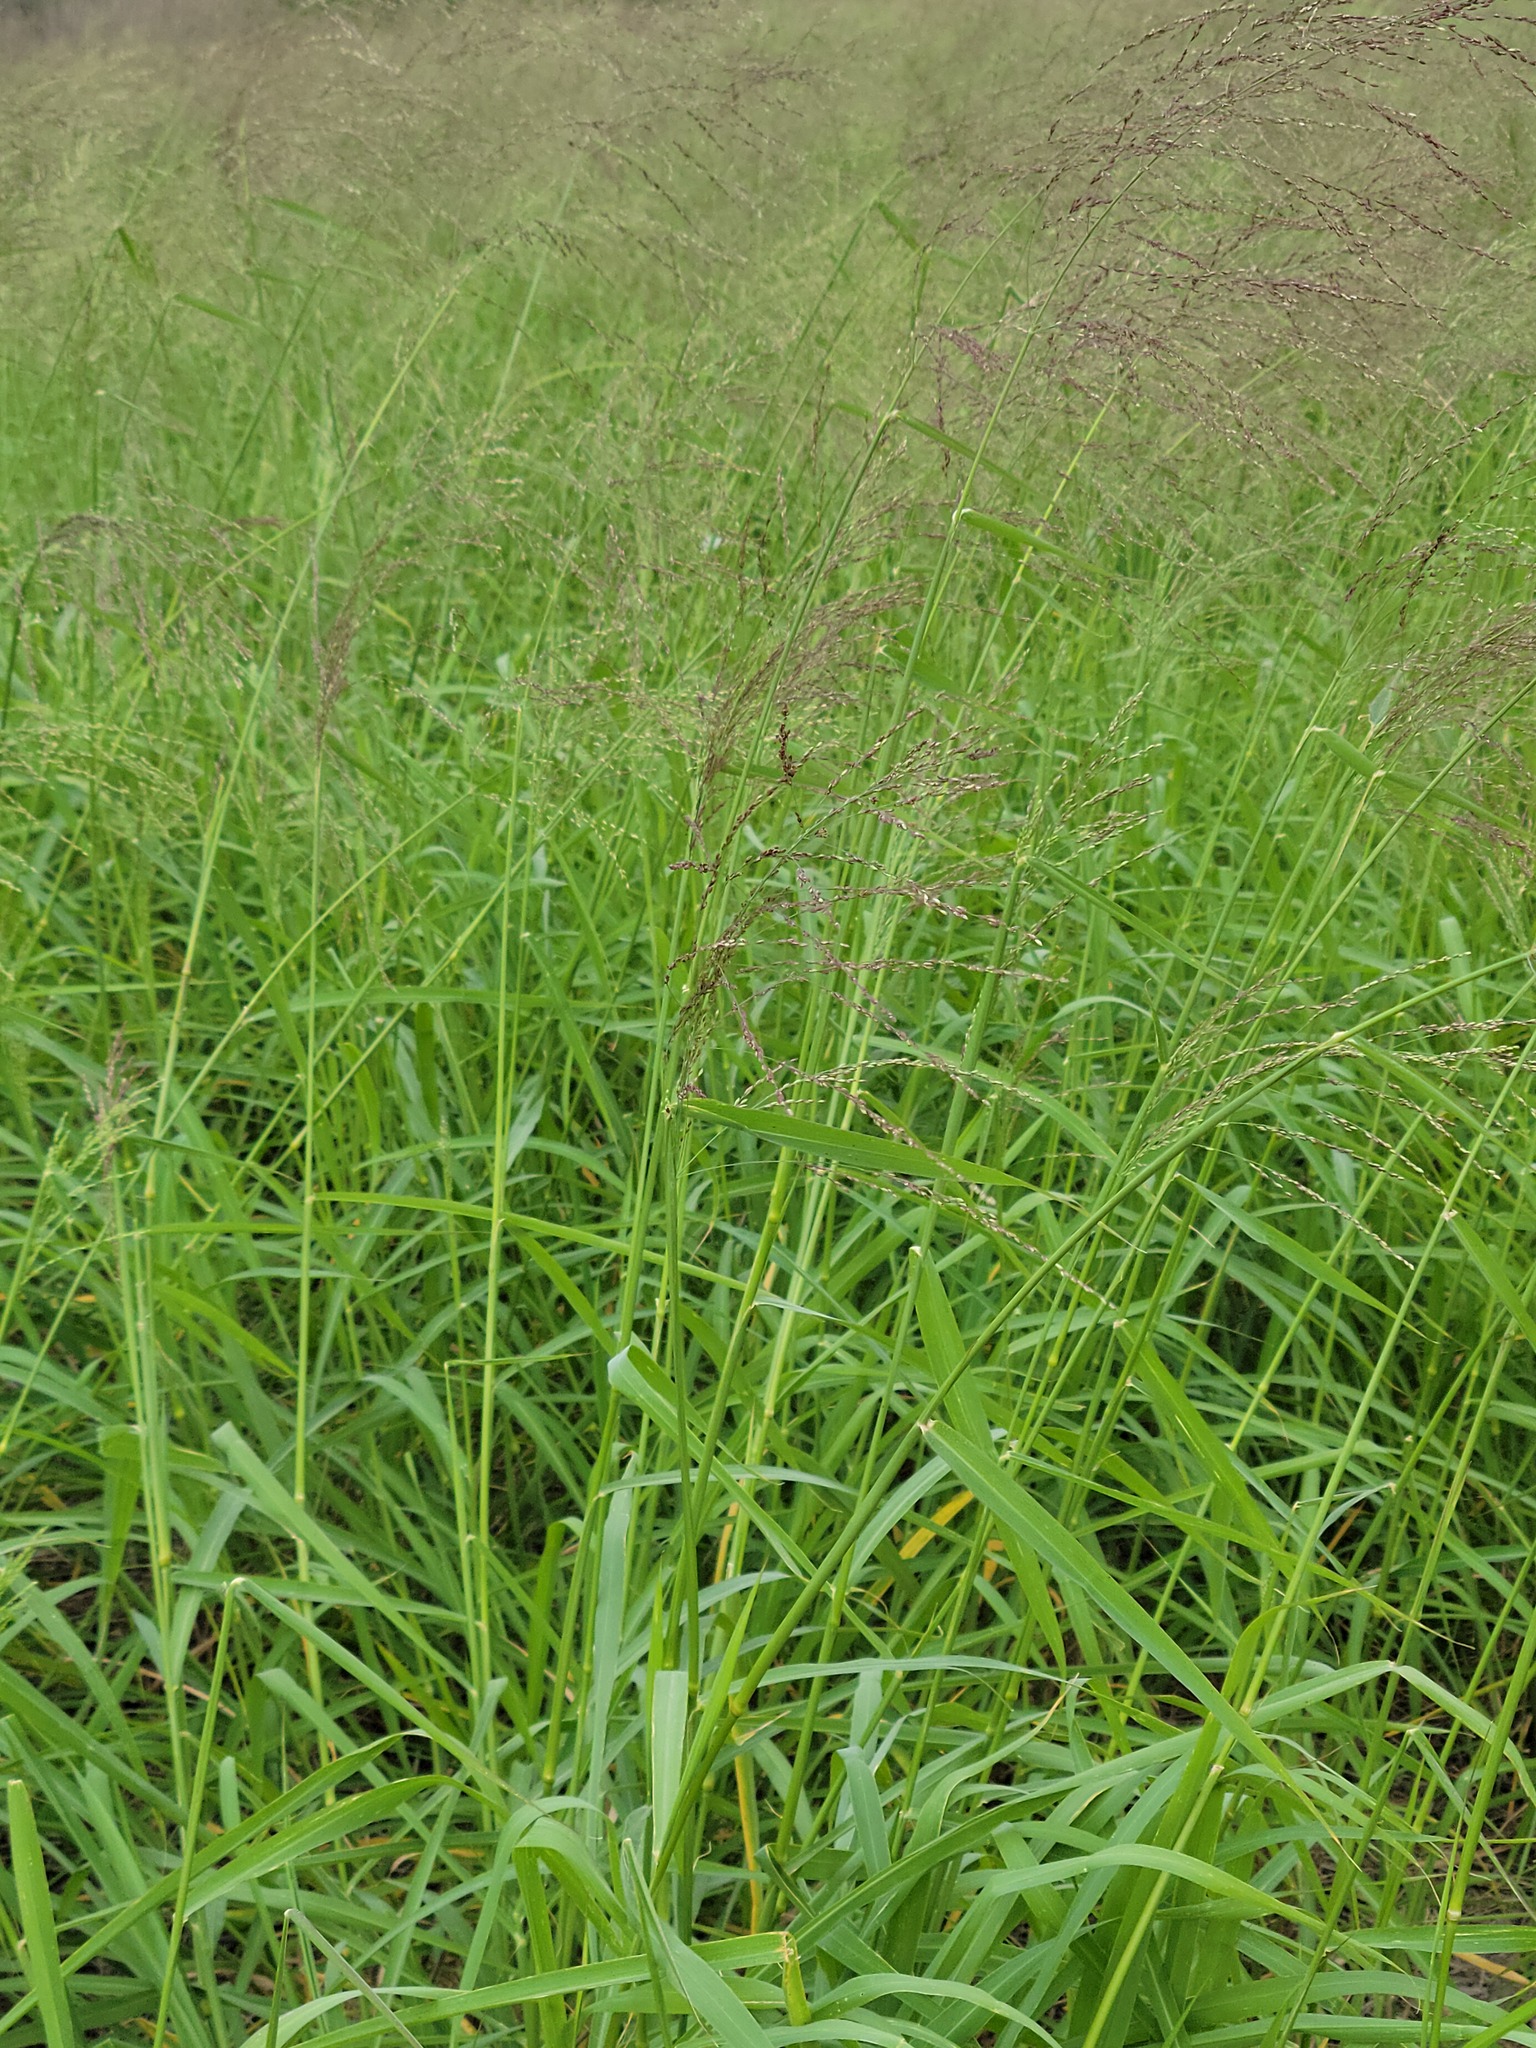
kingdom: Plantae
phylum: Tracheophyta
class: Liliopsida
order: Poales
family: Poaceae
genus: Megathyrsus
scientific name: Megathyrsus maximus
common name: Guineagrass
